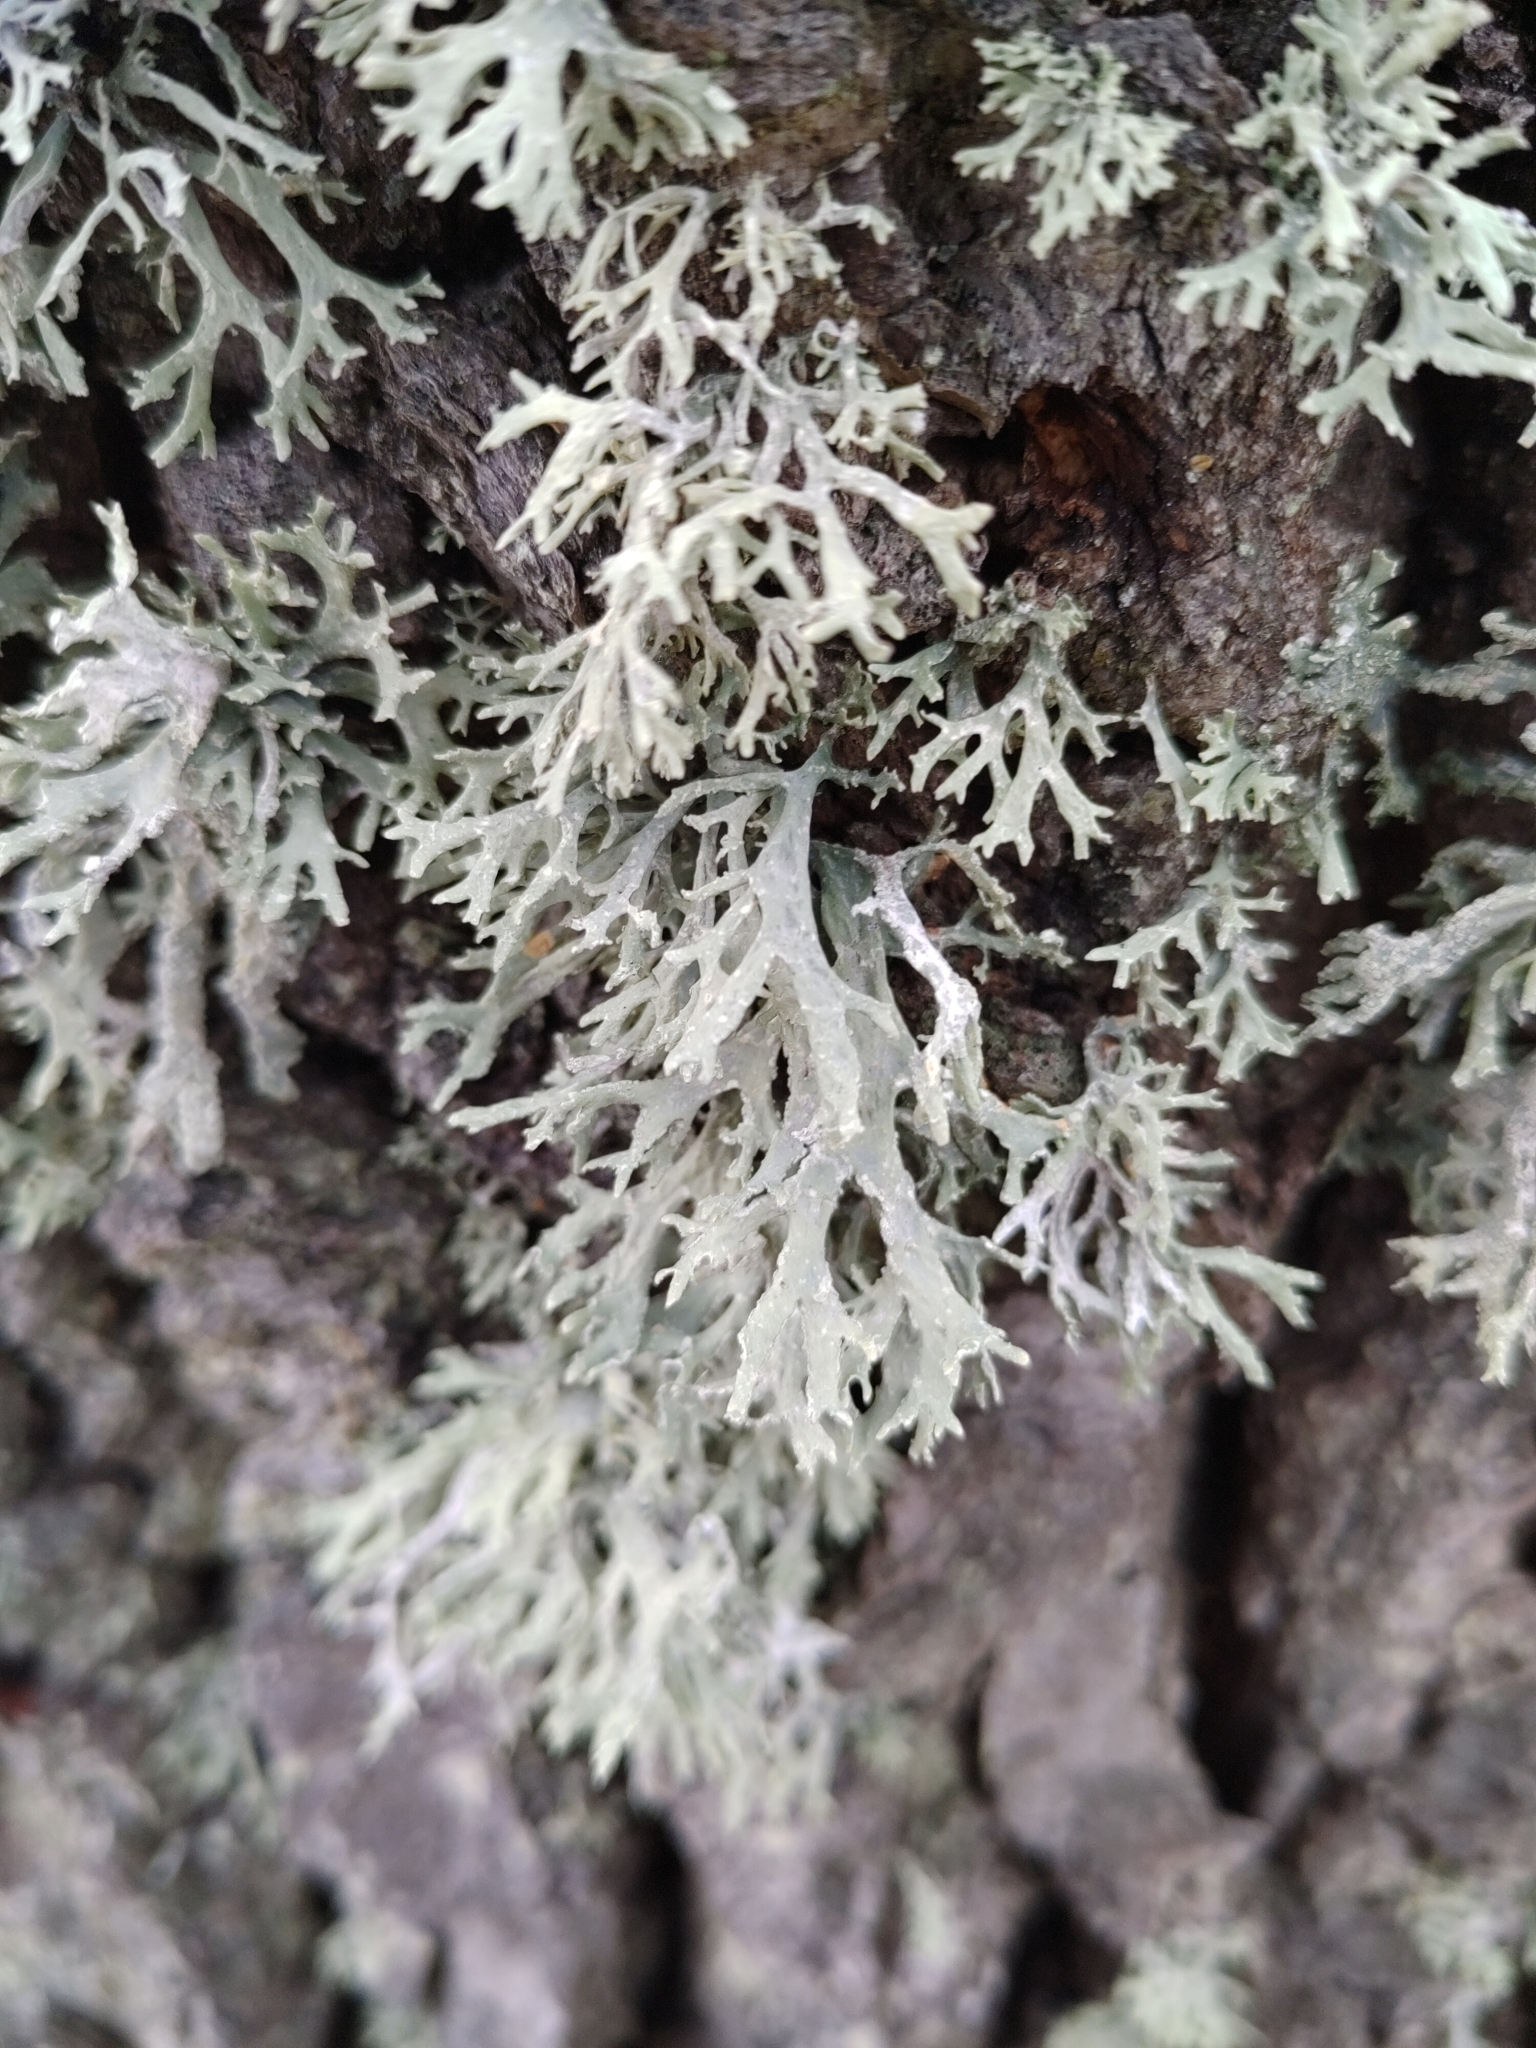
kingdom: Fungi
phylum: Ascomycota
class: Lecanoromycetes
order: Lecanorales
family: Parmeliaceae
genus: Evernia
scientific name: Evernia prunastri
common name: Oak moss
